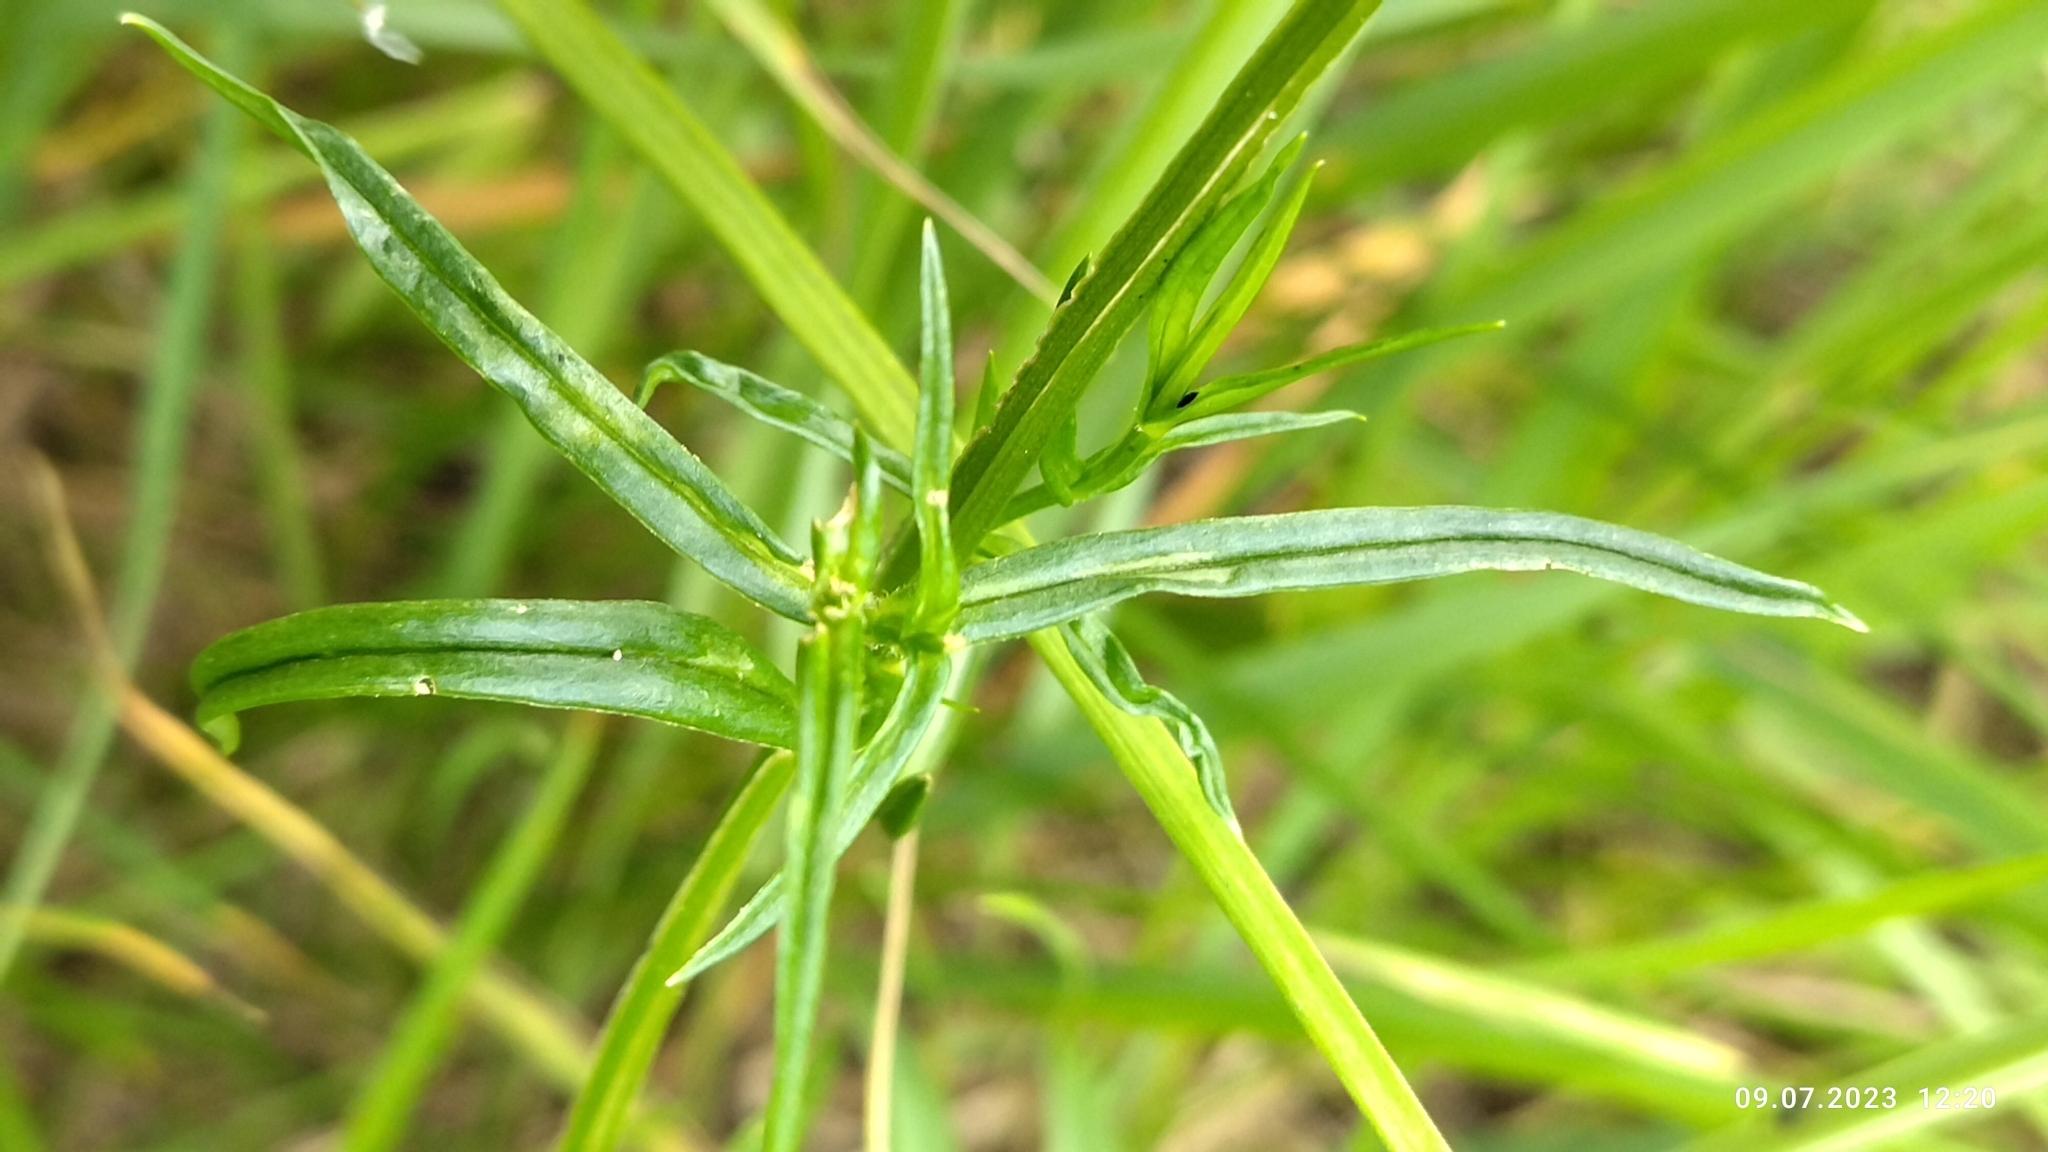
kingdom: Plantae
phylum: Tracheophyta
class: Magnoliopsida
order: Caryophyllales
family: Caryophyllaceae
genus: Stellaria
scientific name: Stellaria graminea
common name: Grass-like starwort
